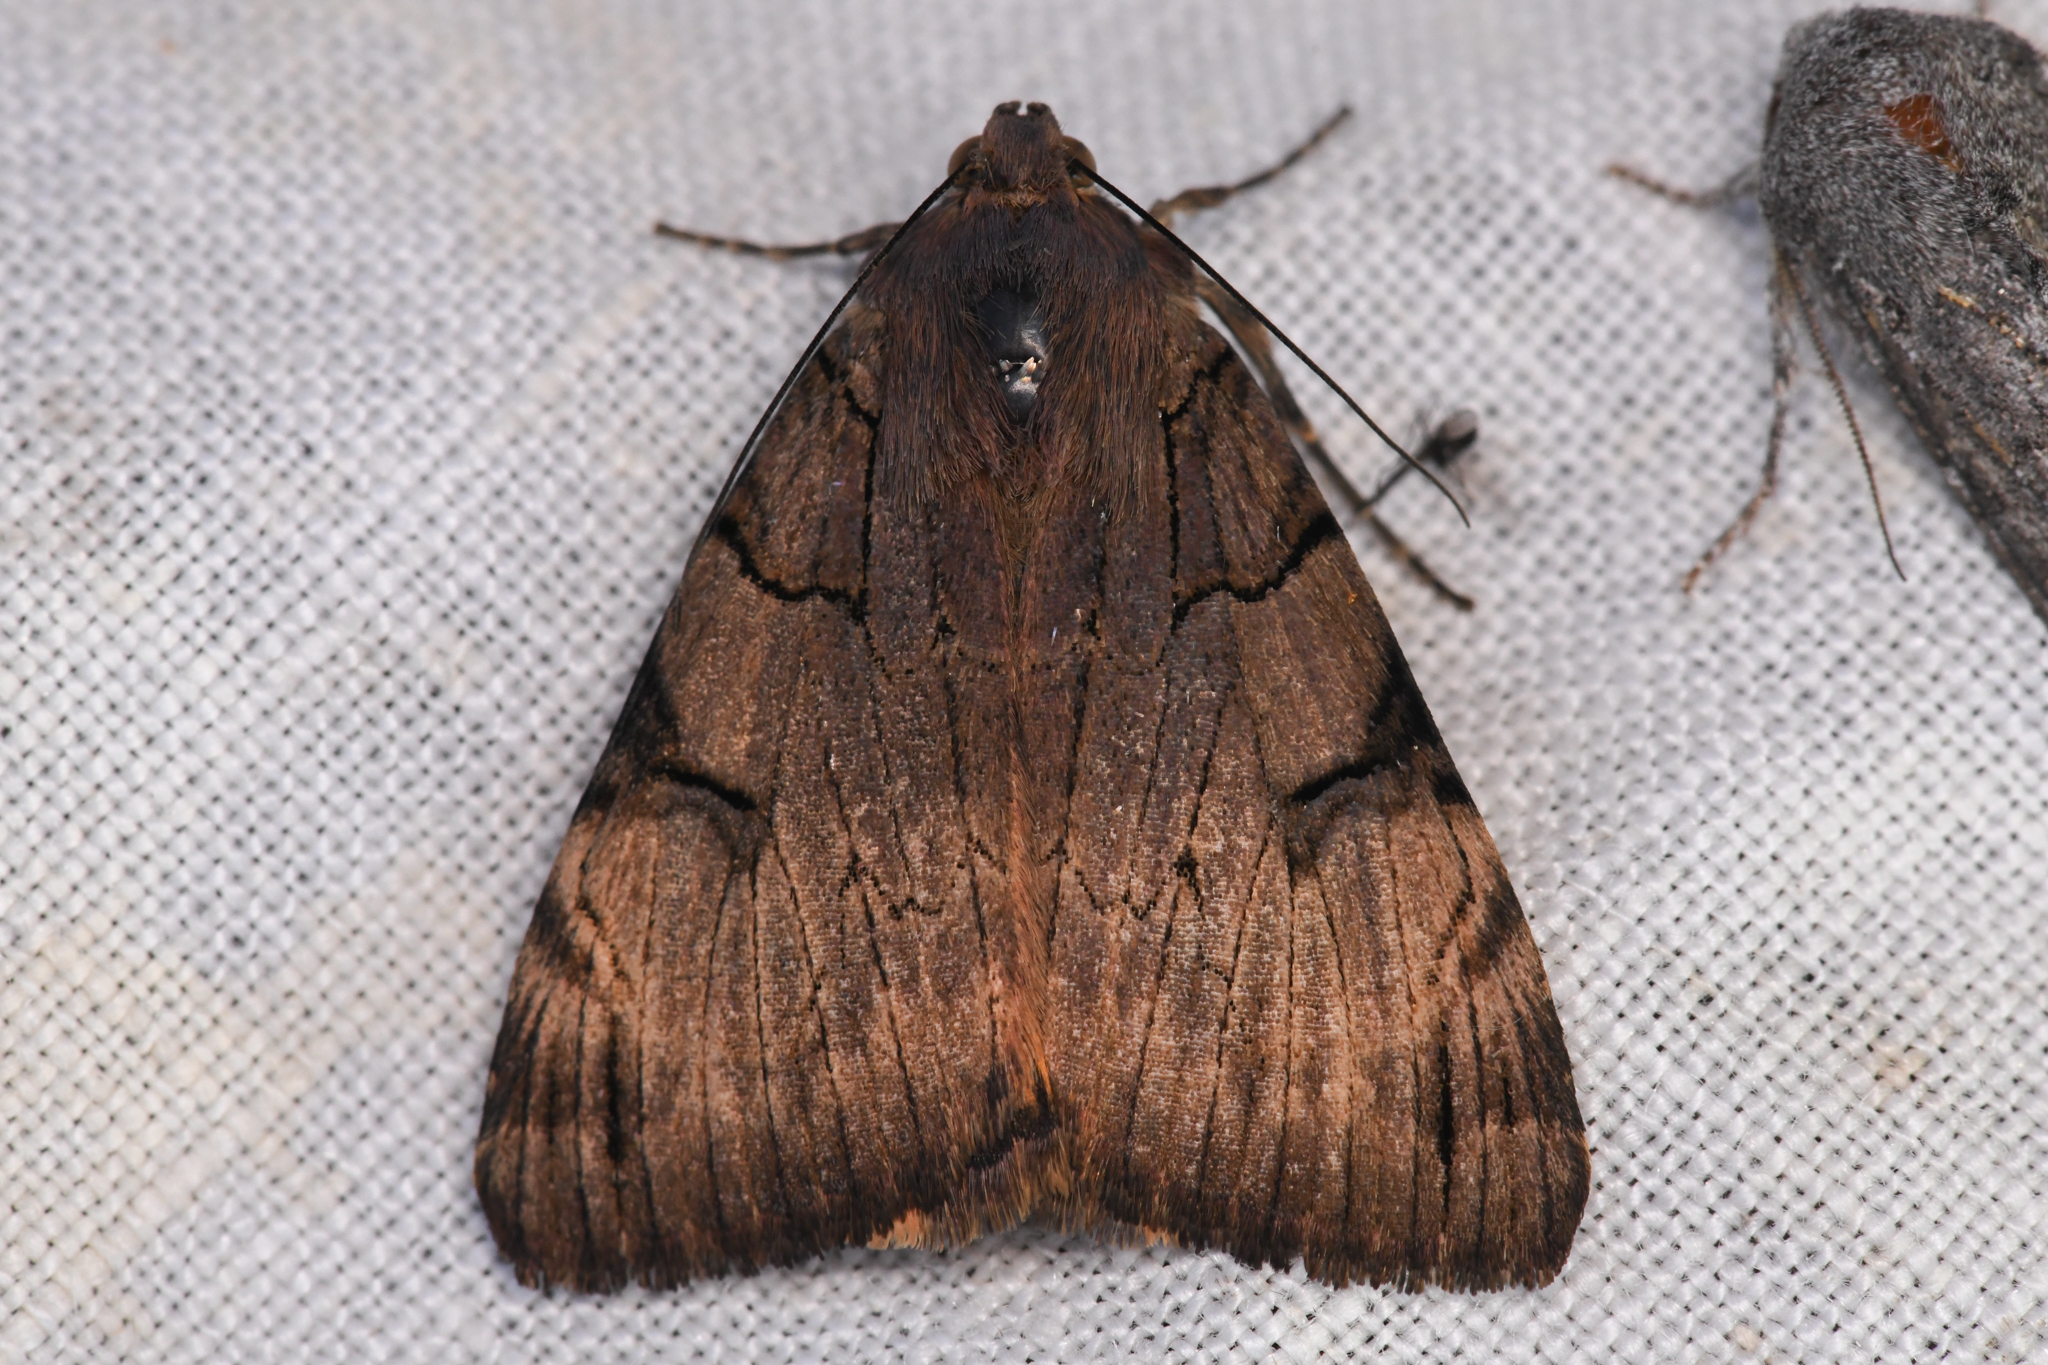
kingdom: Animalia
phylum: Arthropoda
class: Insecta
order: Lepidoptera
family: Erebidae
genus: Drasteria
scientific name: Drasteria ochracea
